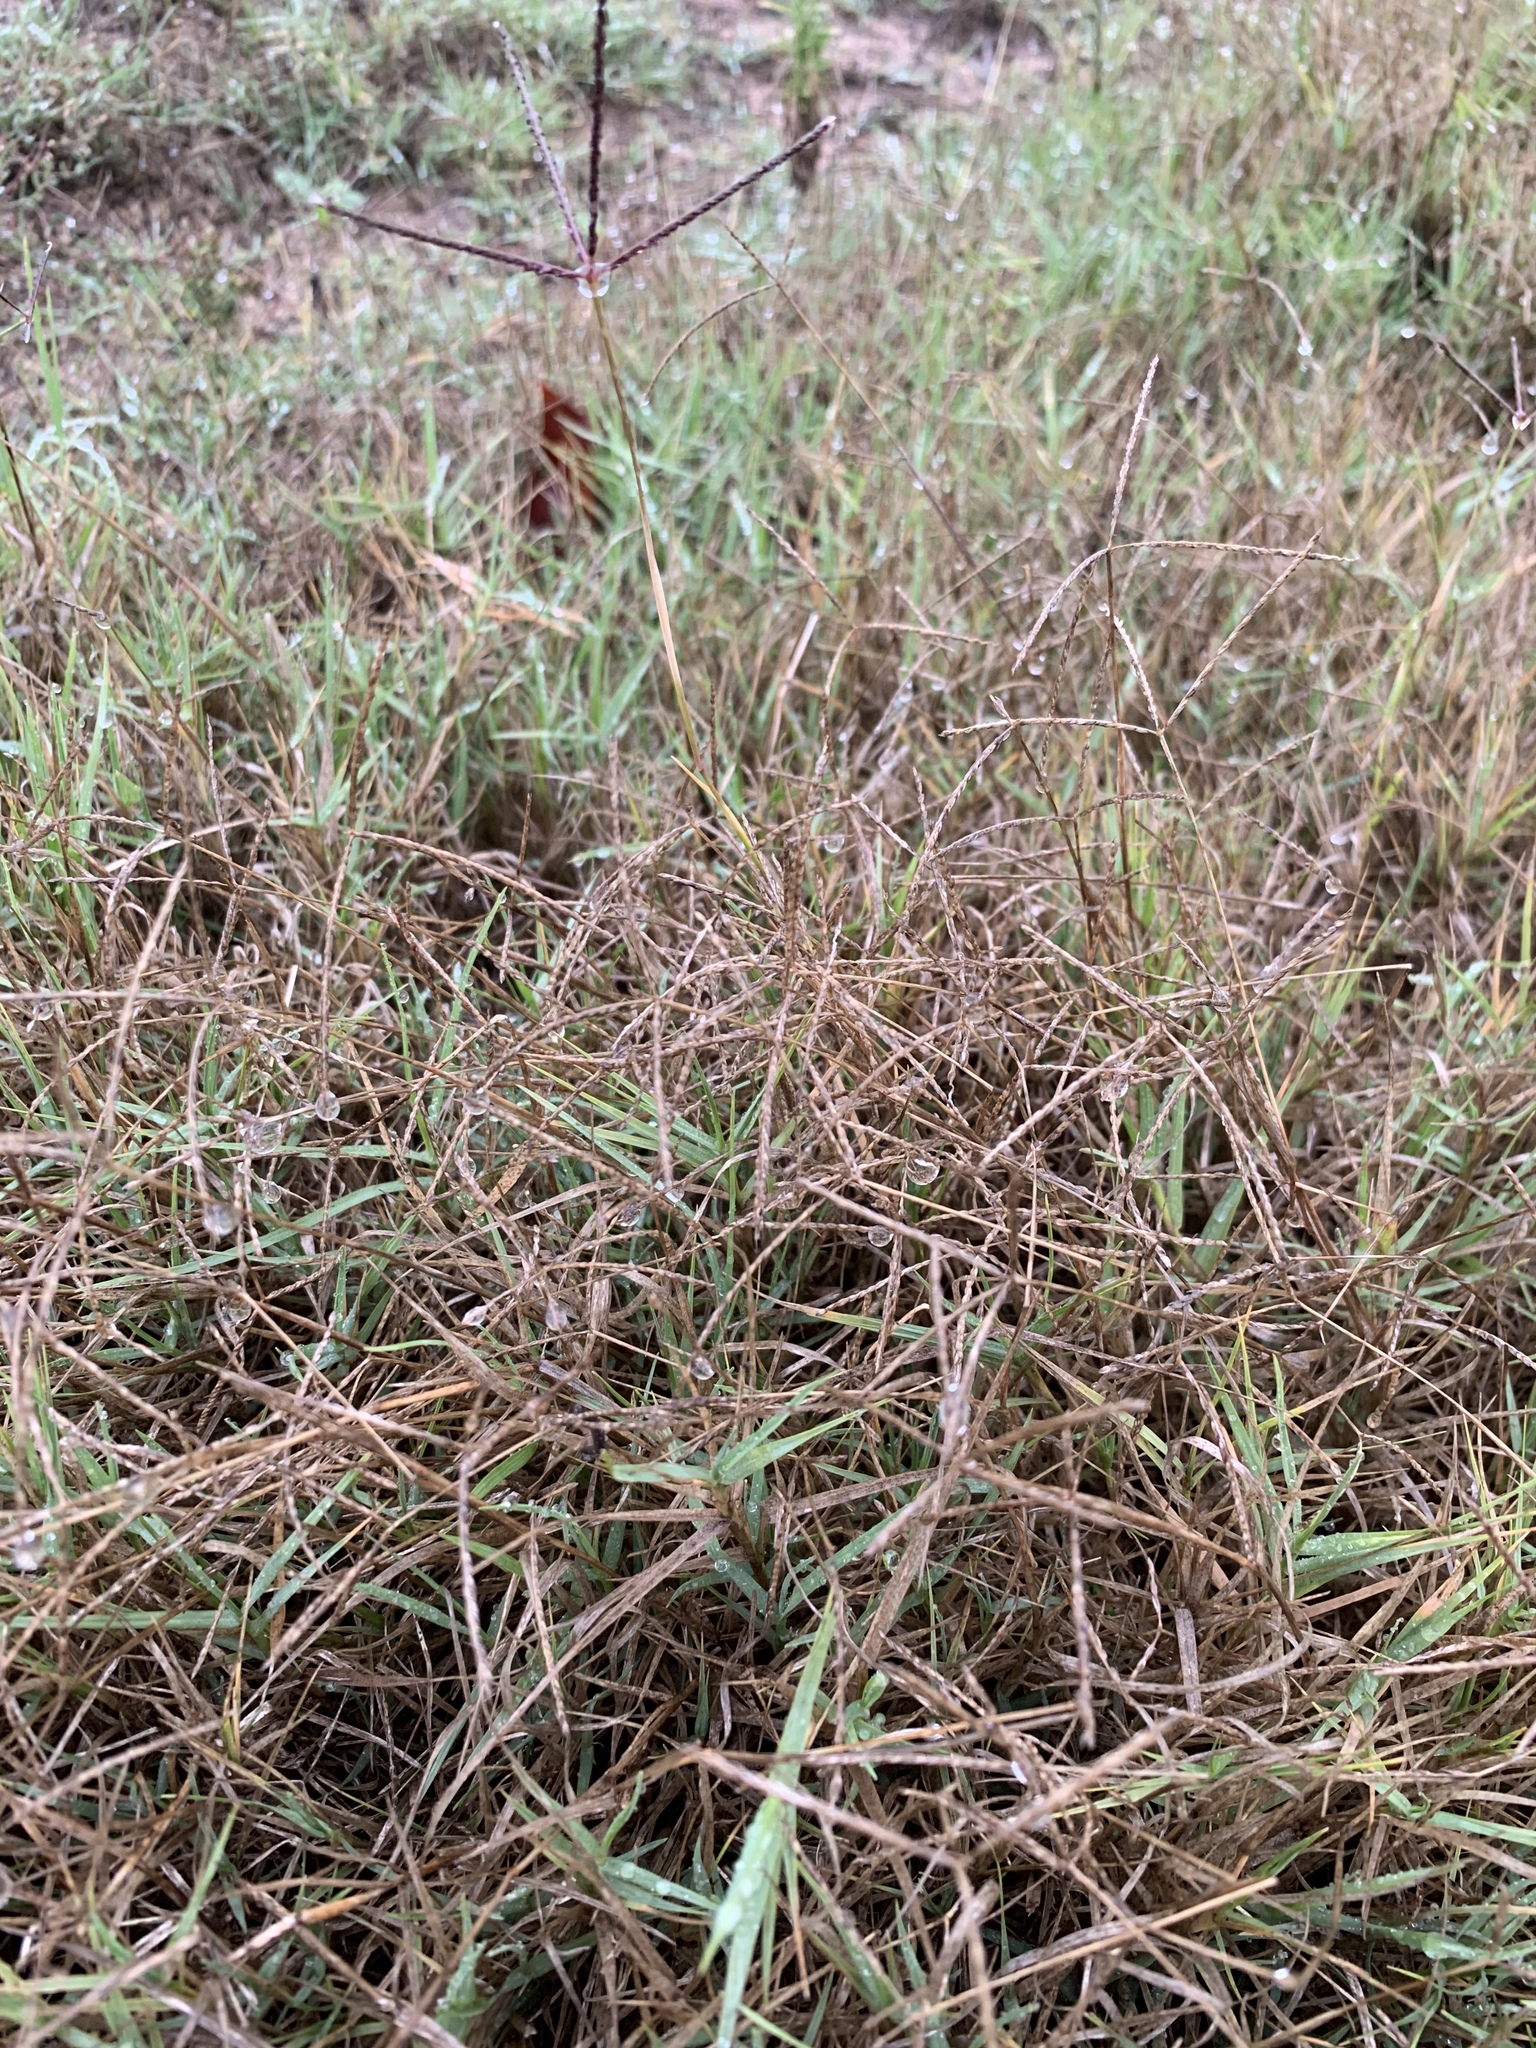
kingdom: Plantae
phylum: Tracheophyta
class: Liliopsida
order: Poales
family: Poaceae
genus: Cynodon
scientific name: Cynodon dactylon
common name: Bermuda grass
